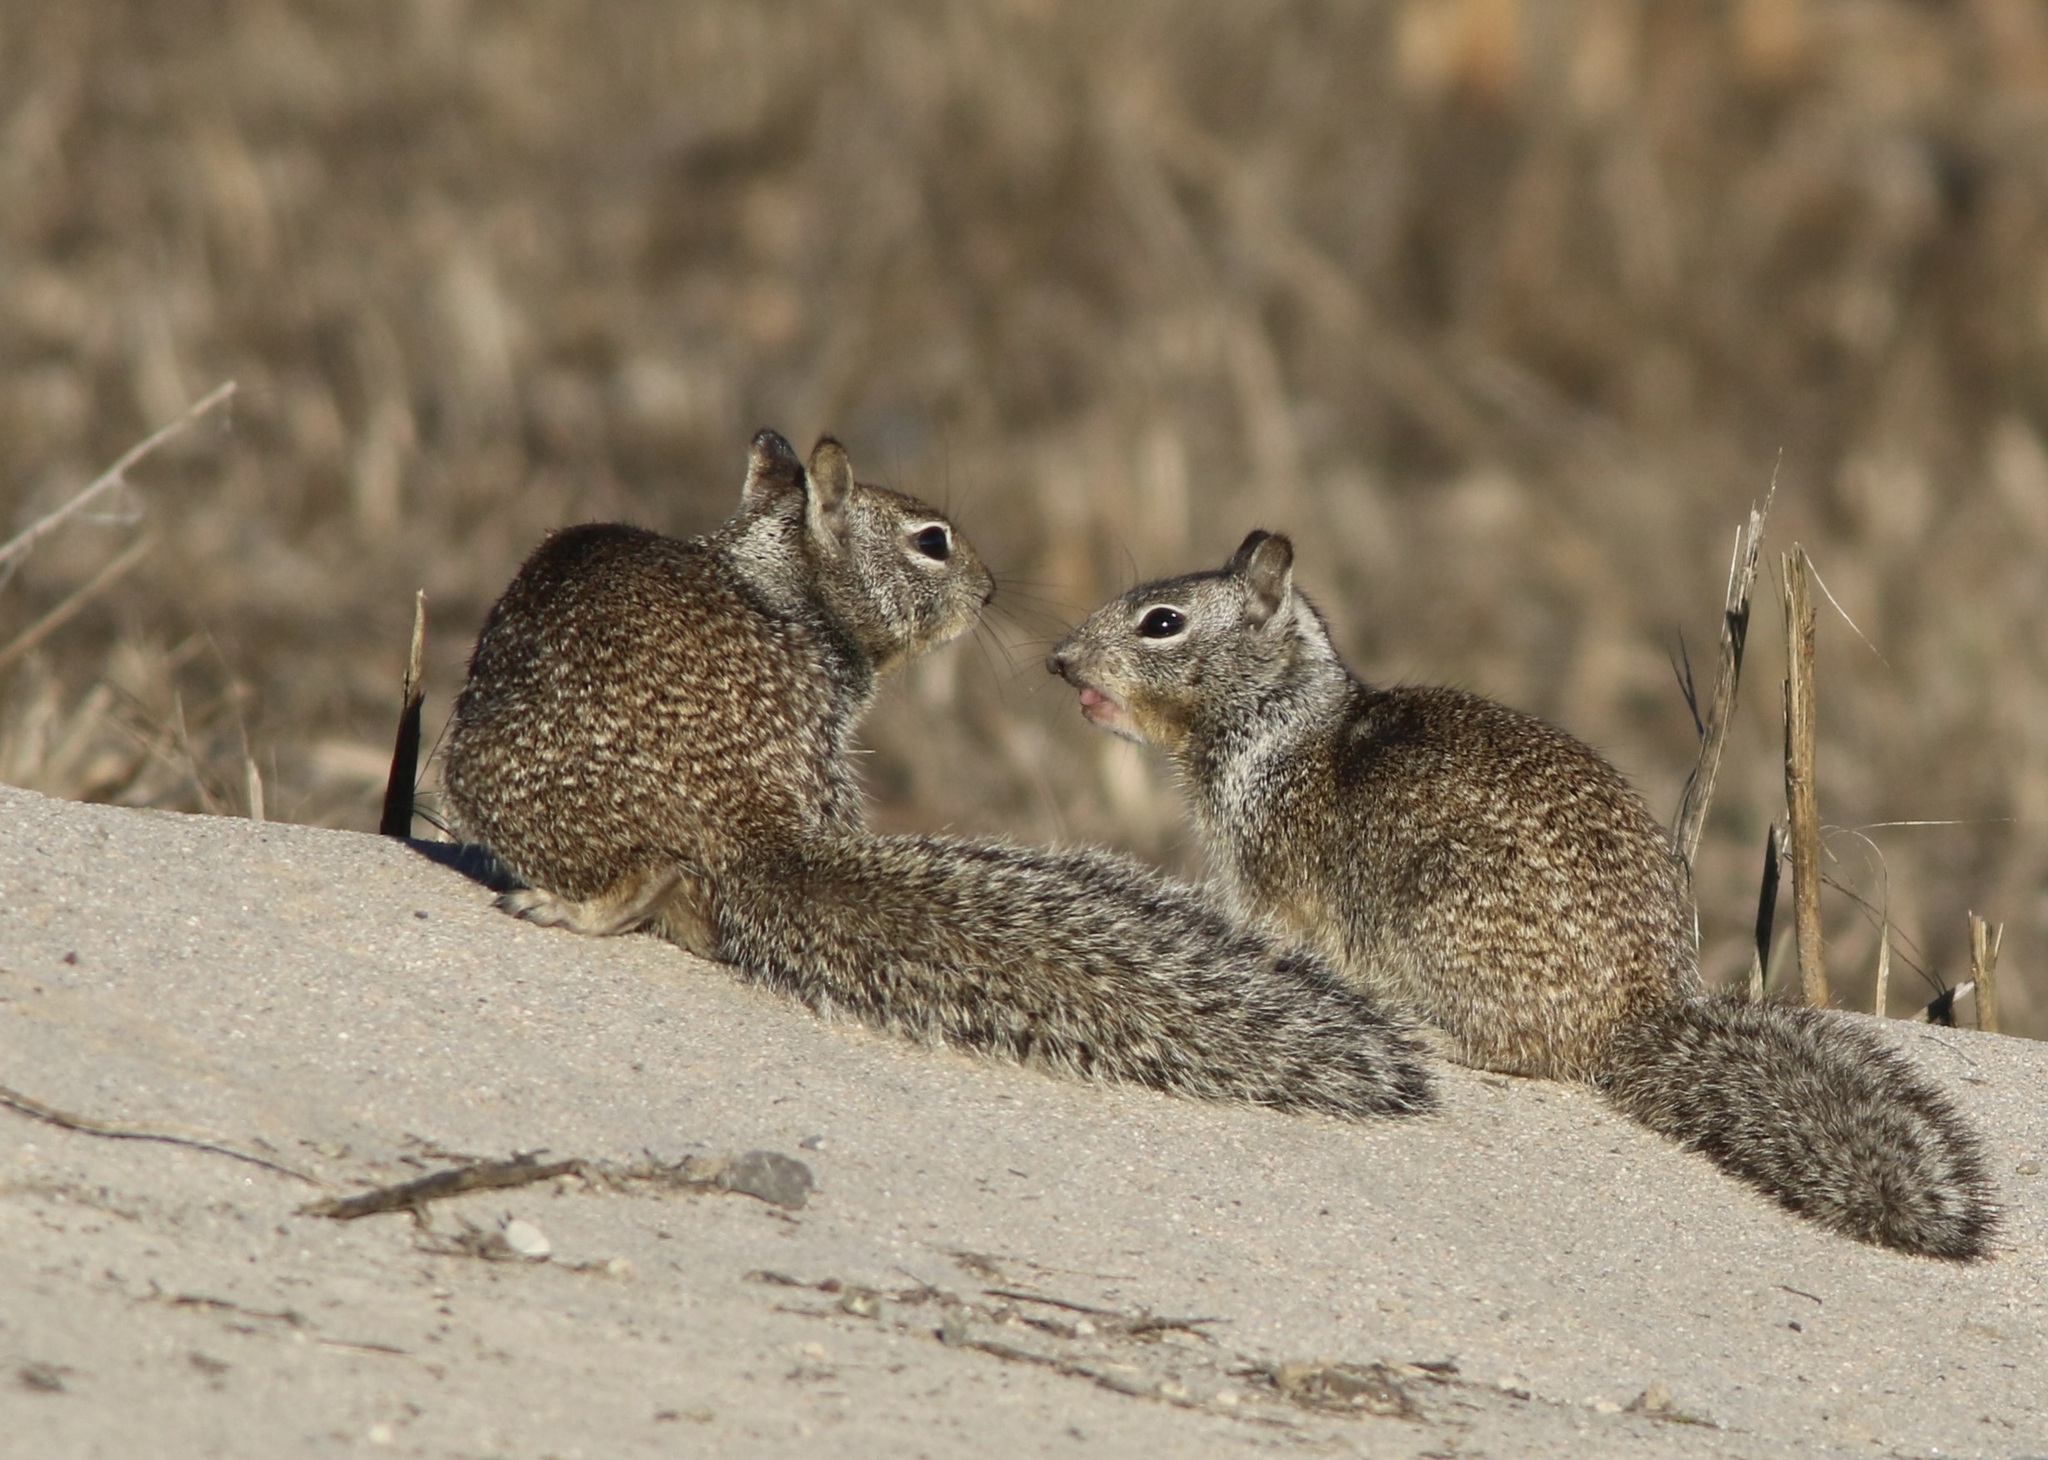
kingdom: Animalia
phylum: Chordata
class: Mammalia
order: Rodentia
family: Sciuridae
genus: Otospermophilus
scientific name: Otospermophilus beecheyi
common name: California ground squirrel
